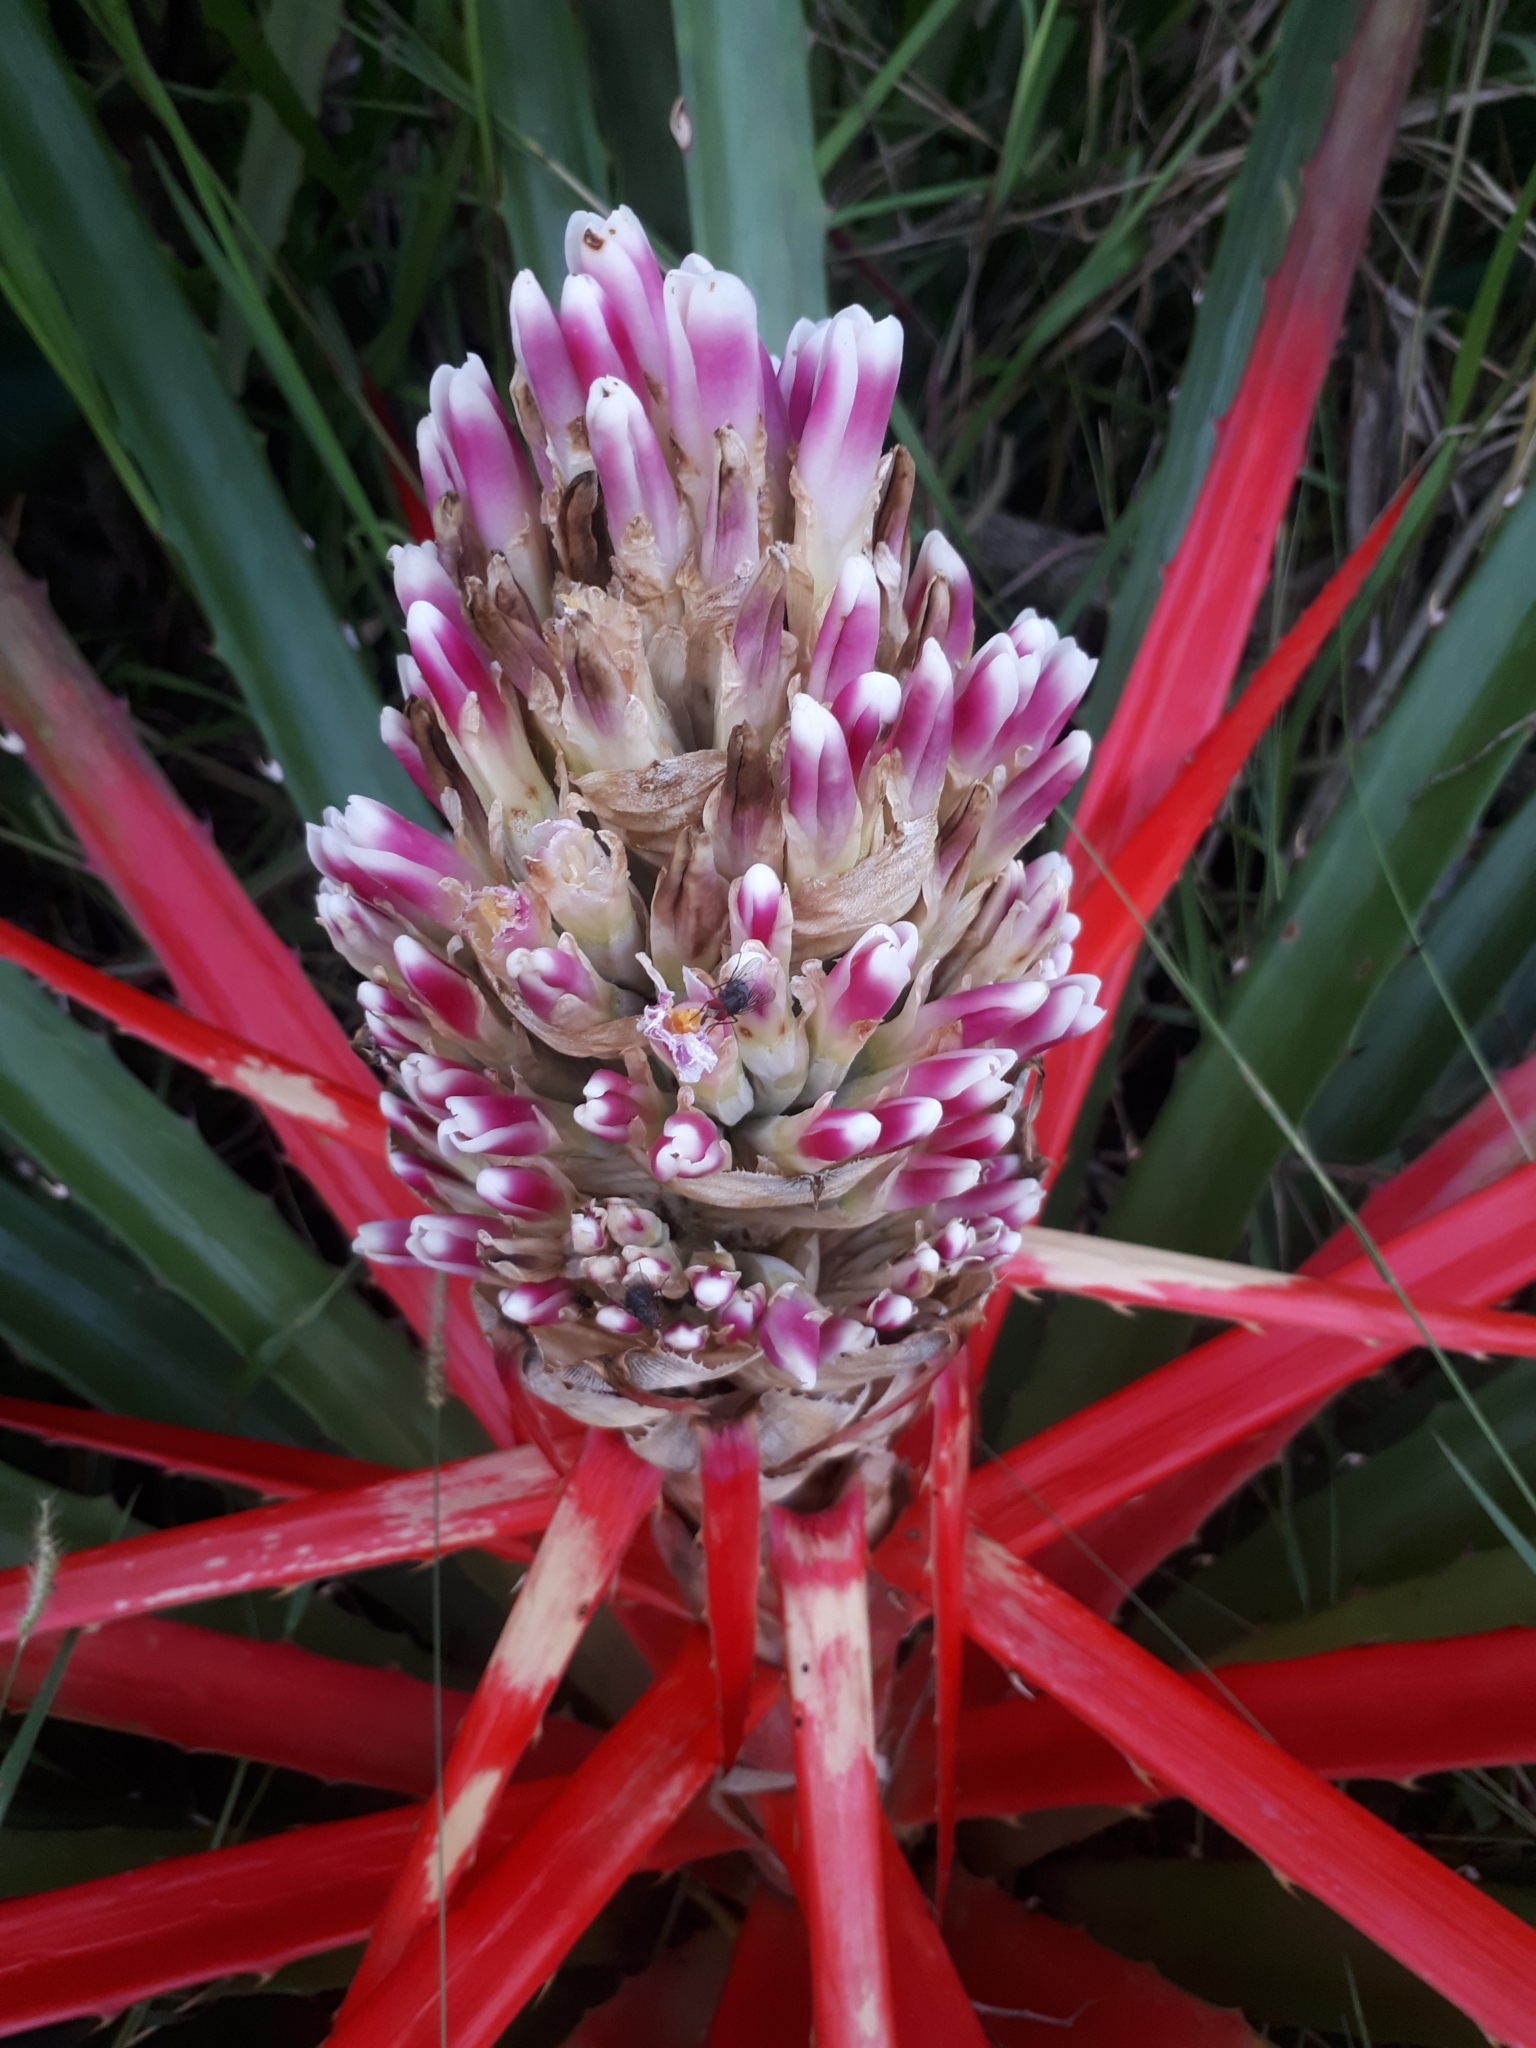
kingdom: Plantae
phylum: Tracheophyta
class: Liliopsida
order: Poales
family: Bromeliaceae
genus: Bromelia
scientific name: Bromelia balansae
